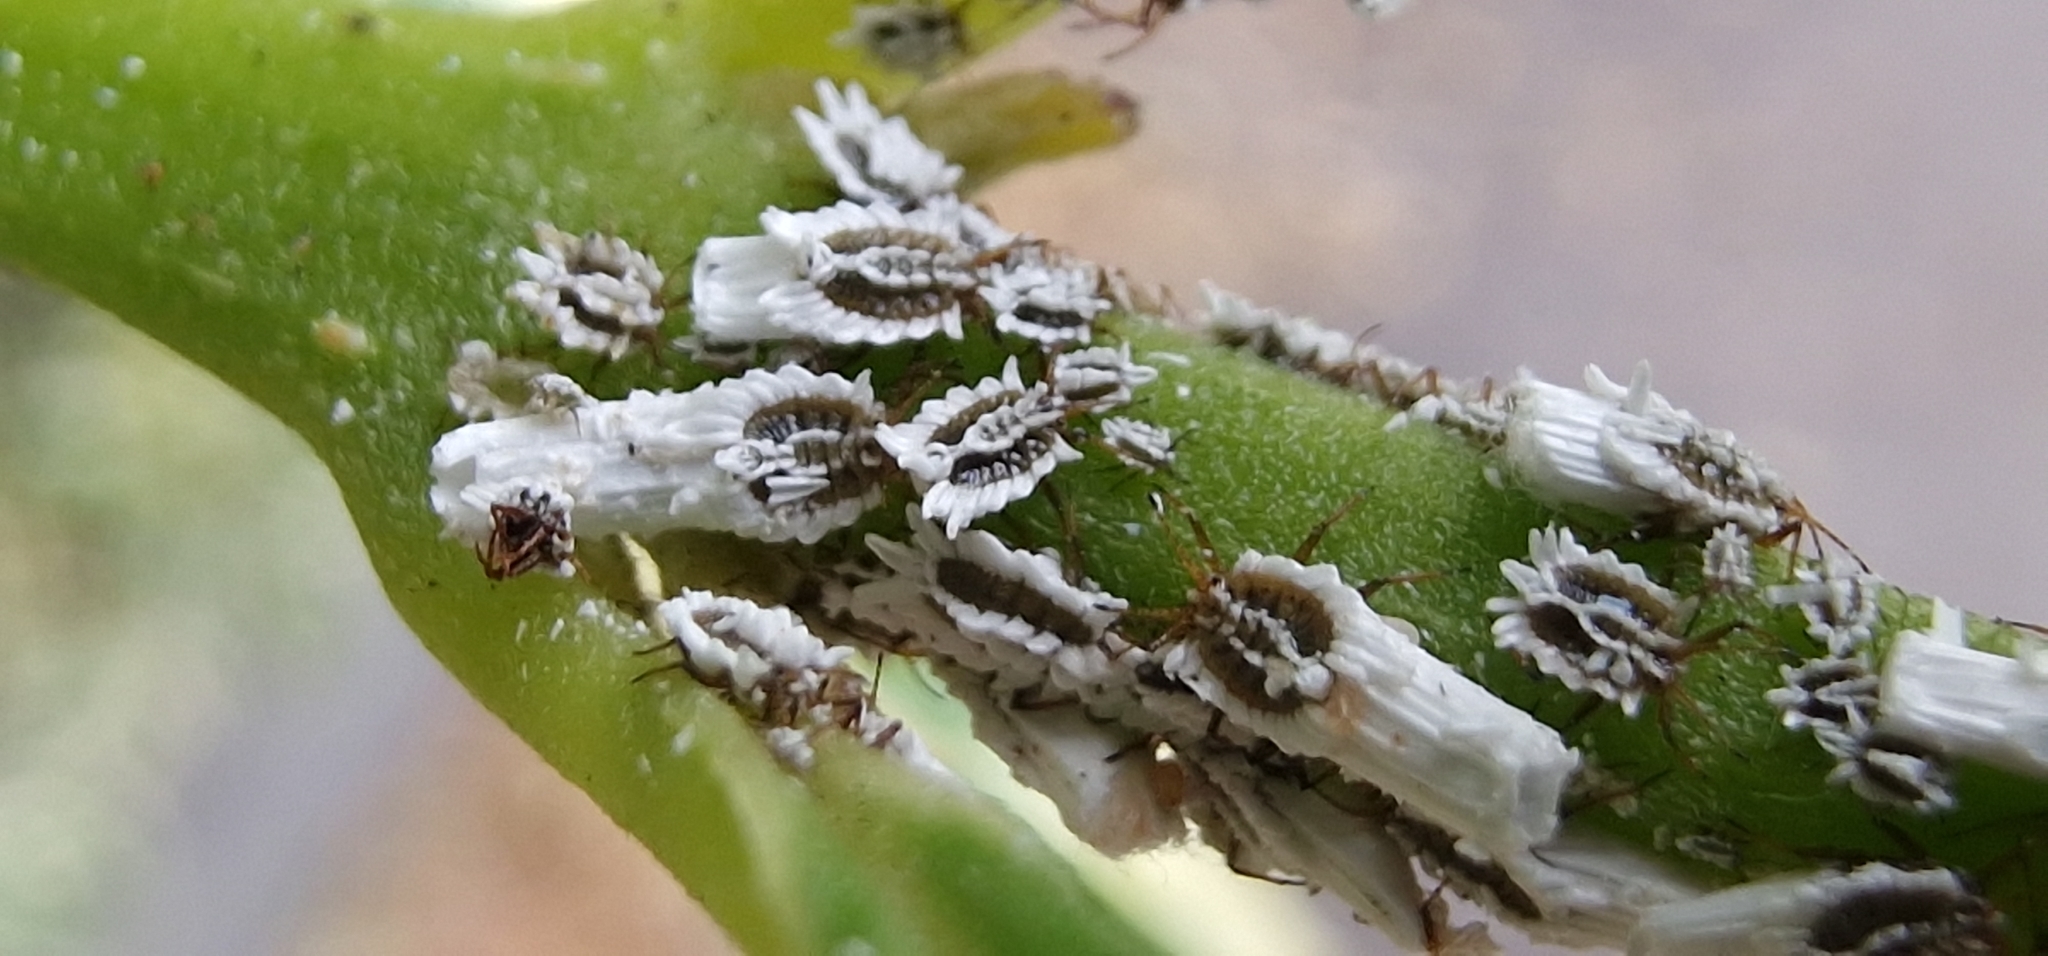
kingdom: Animalia
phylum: Arthropoda
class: Insecta
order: Hemiptera
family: Ortheziidae
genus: Insignorthezia
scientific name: Insignorthezia insignis
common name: Greenhouse orthezia
